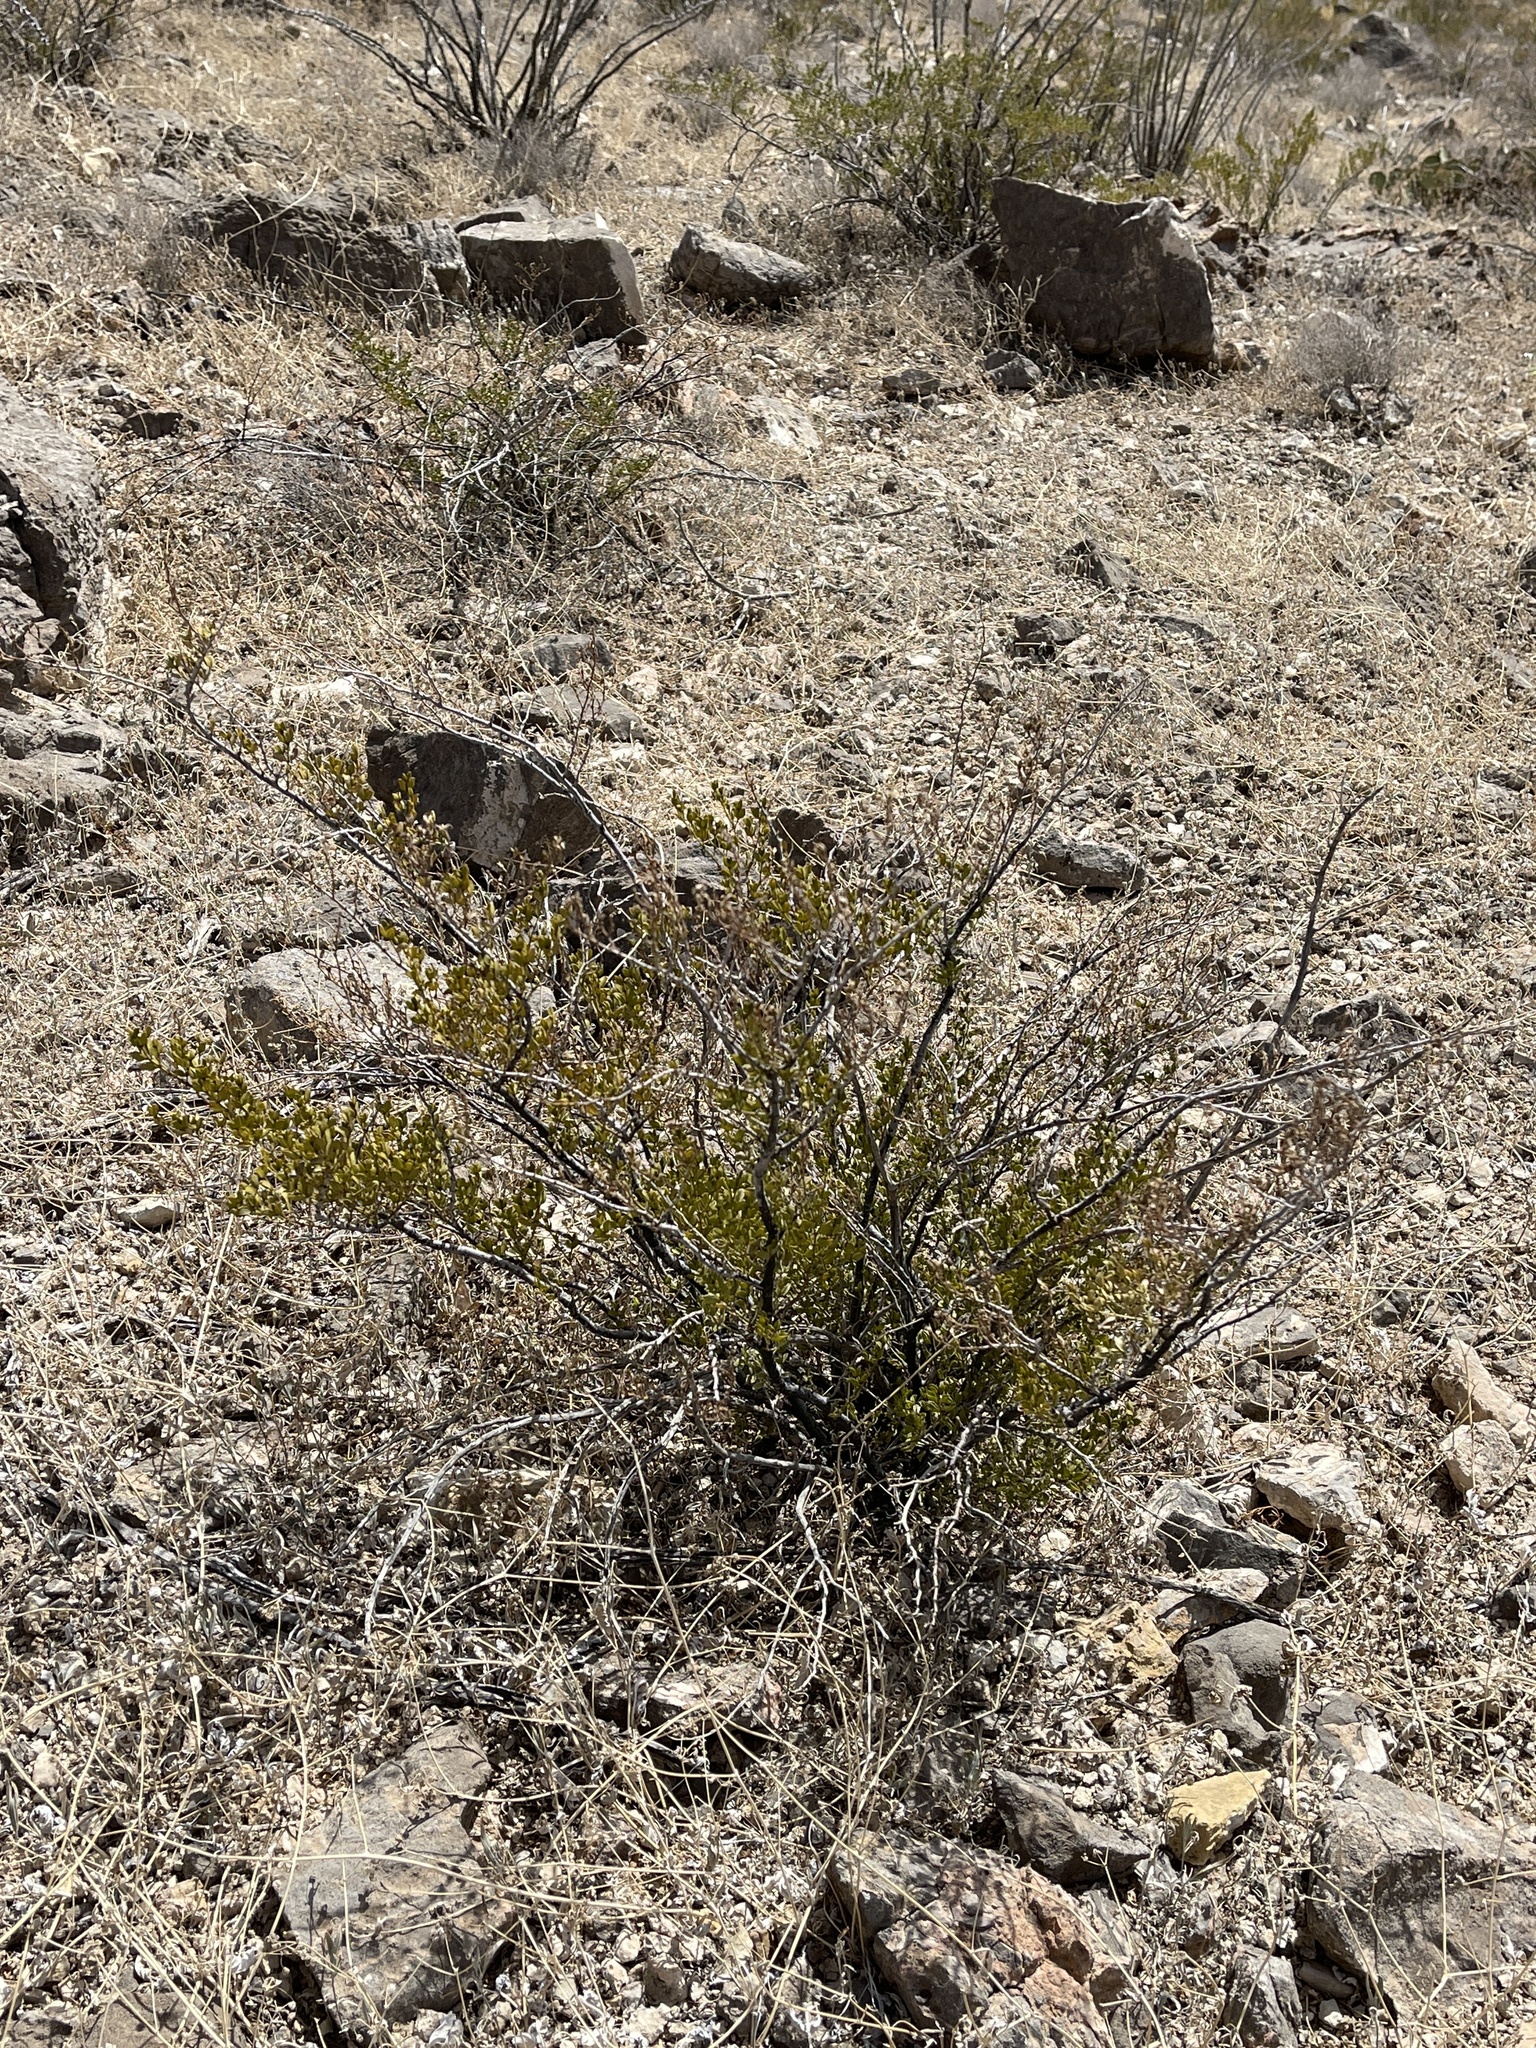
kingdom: Plantae
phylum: Tracheophyta
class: Magnoliopsida
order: Zygophyllales
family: Zygophyllaceae
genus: Larrea
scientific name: Larrea tridentata
